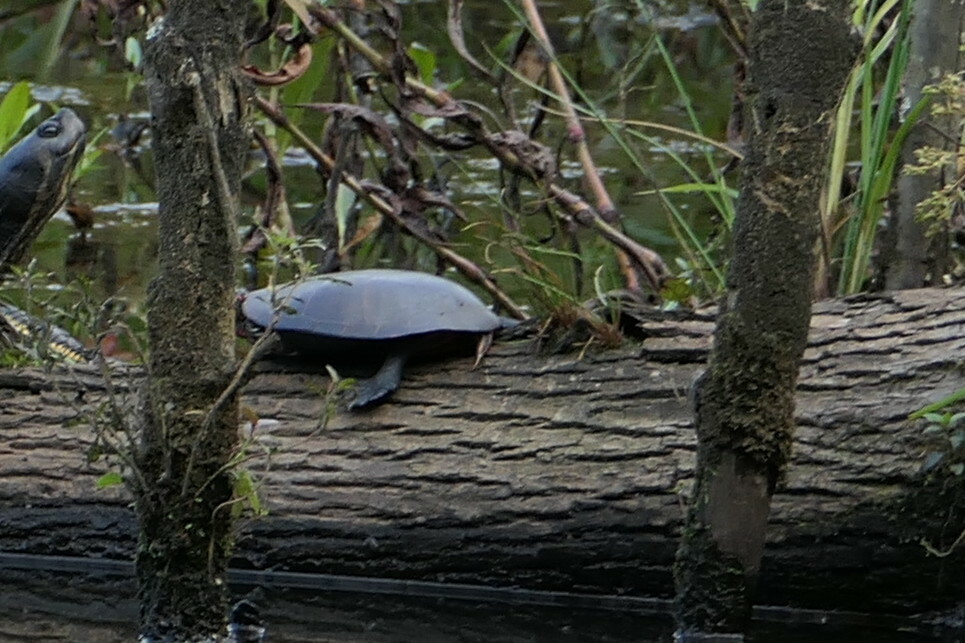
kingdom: Animalia
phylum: Chordata
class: Testudines
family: Emydidae
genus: Chrysemys
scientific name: Chrysemys picta
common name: Painted turtle
